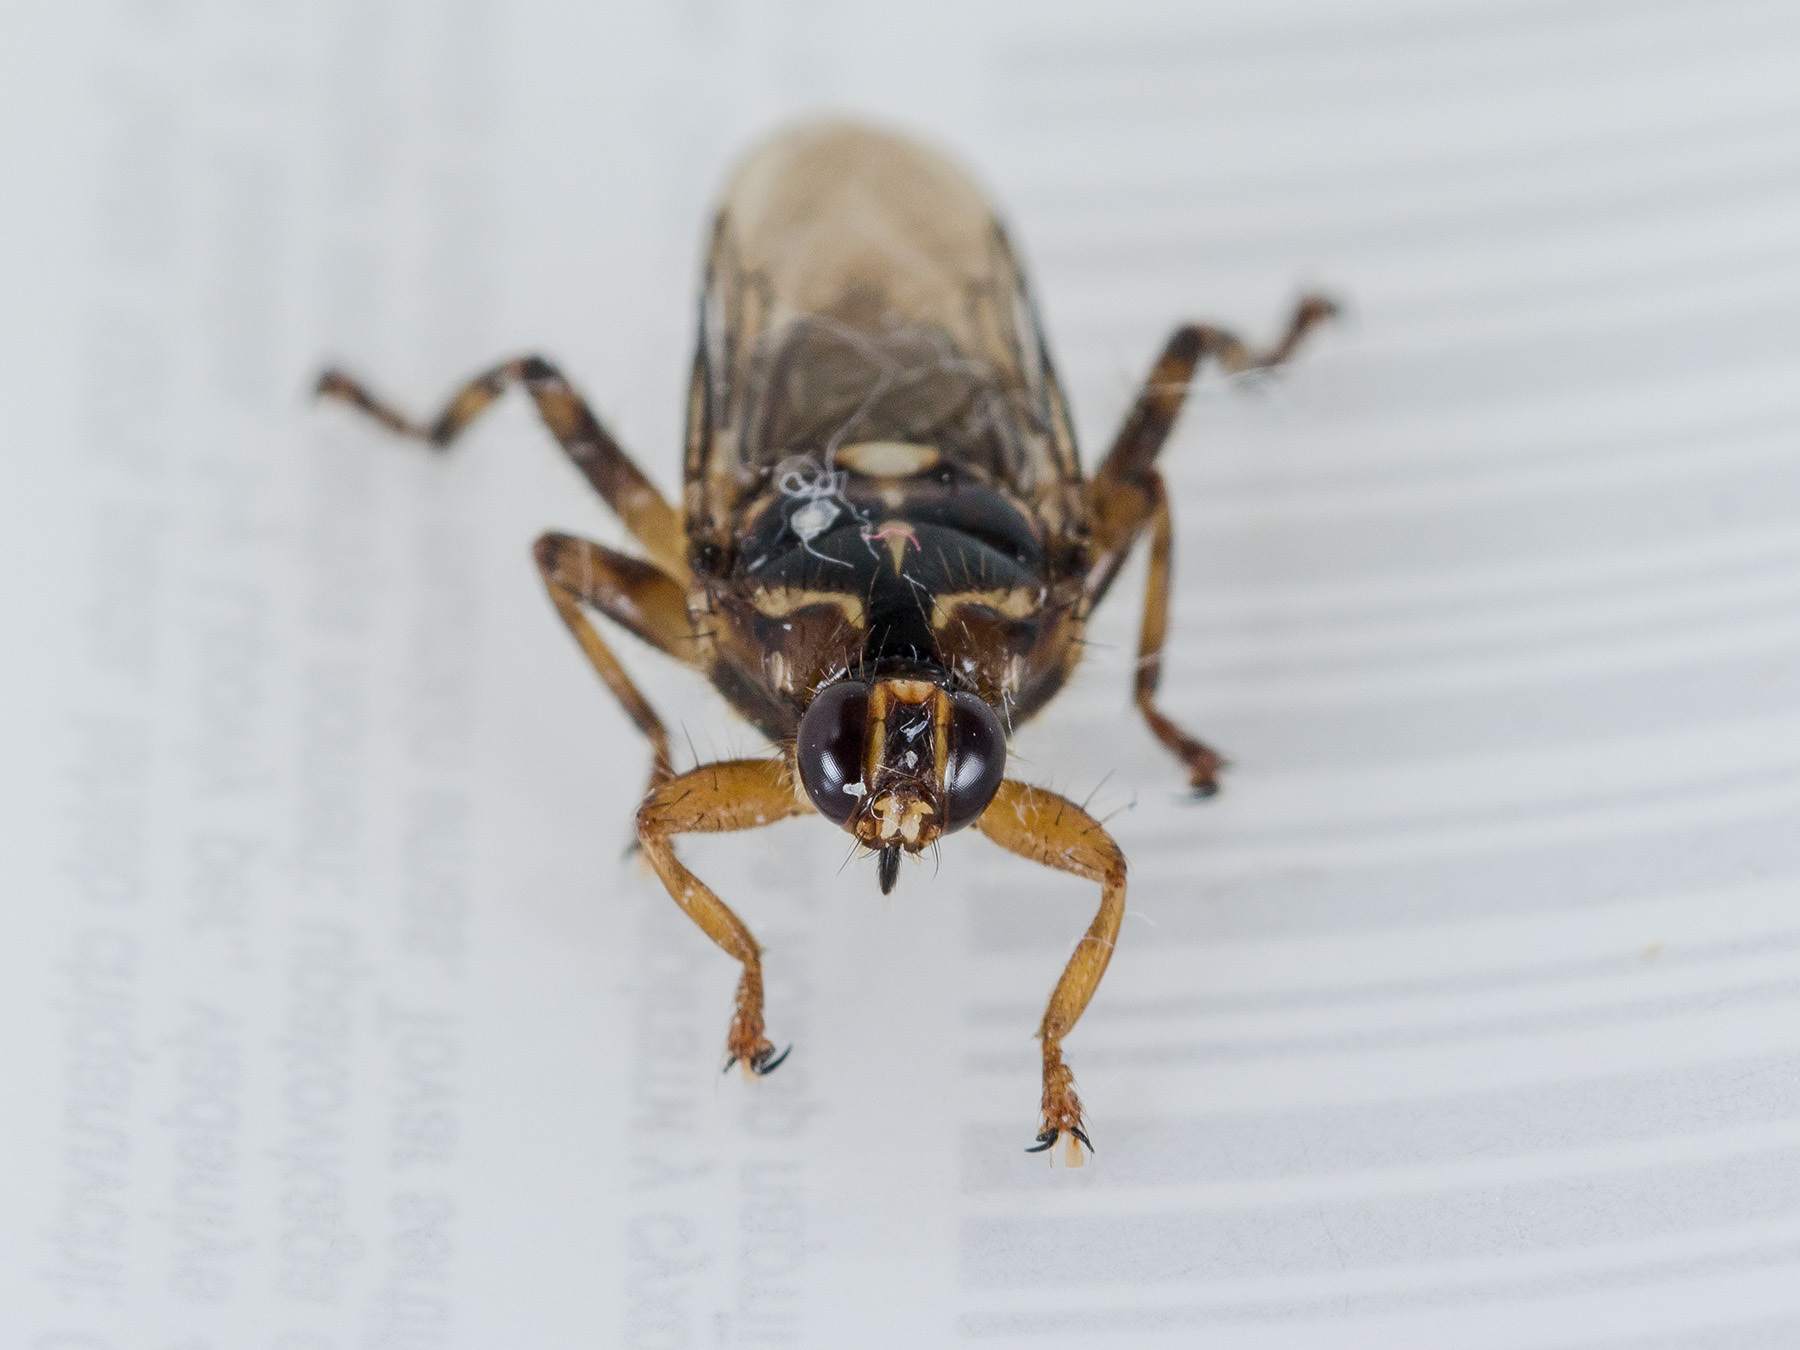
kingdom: Animalia
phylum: Arthropoda
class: Insecta
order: Diptera
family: Hippoboscidae
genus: Hippobosca
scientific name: Hippobosca equina
